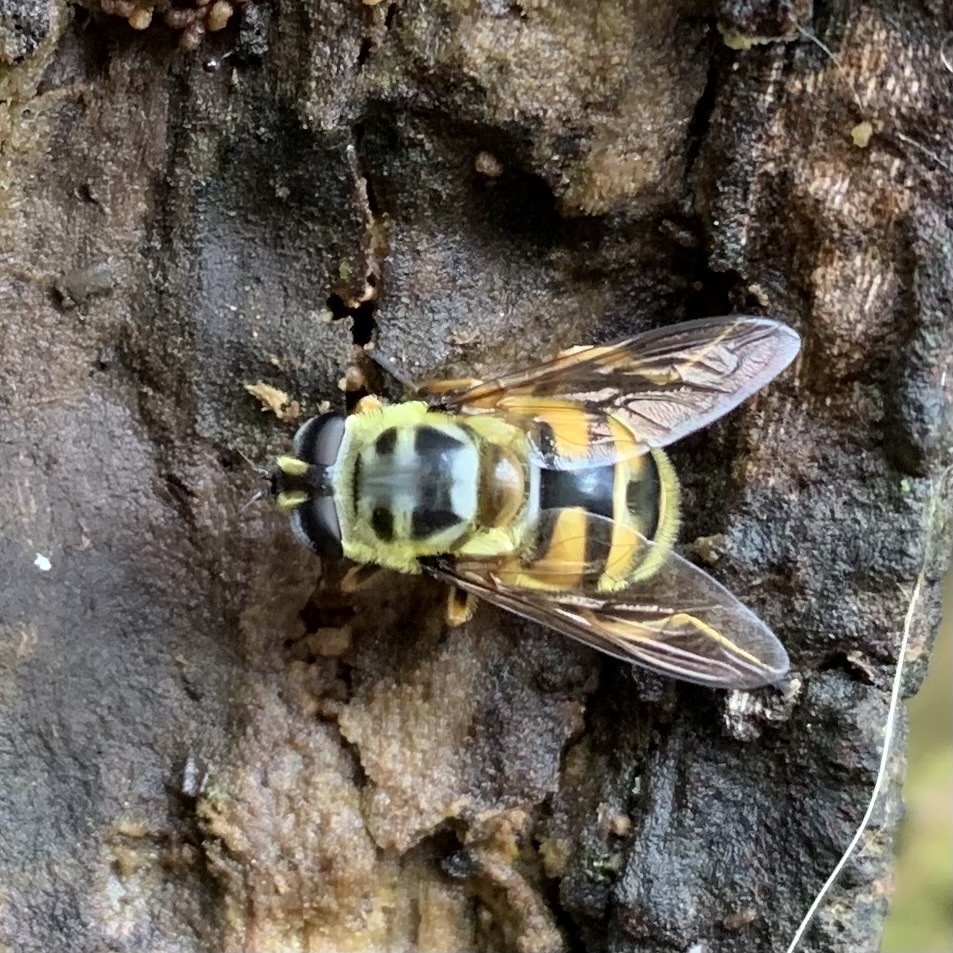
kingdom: Animalia
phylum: Arthropoda
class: Insecta
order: Diptera
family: Syrphidae
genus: Myathropa
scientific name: Myathropa florea
